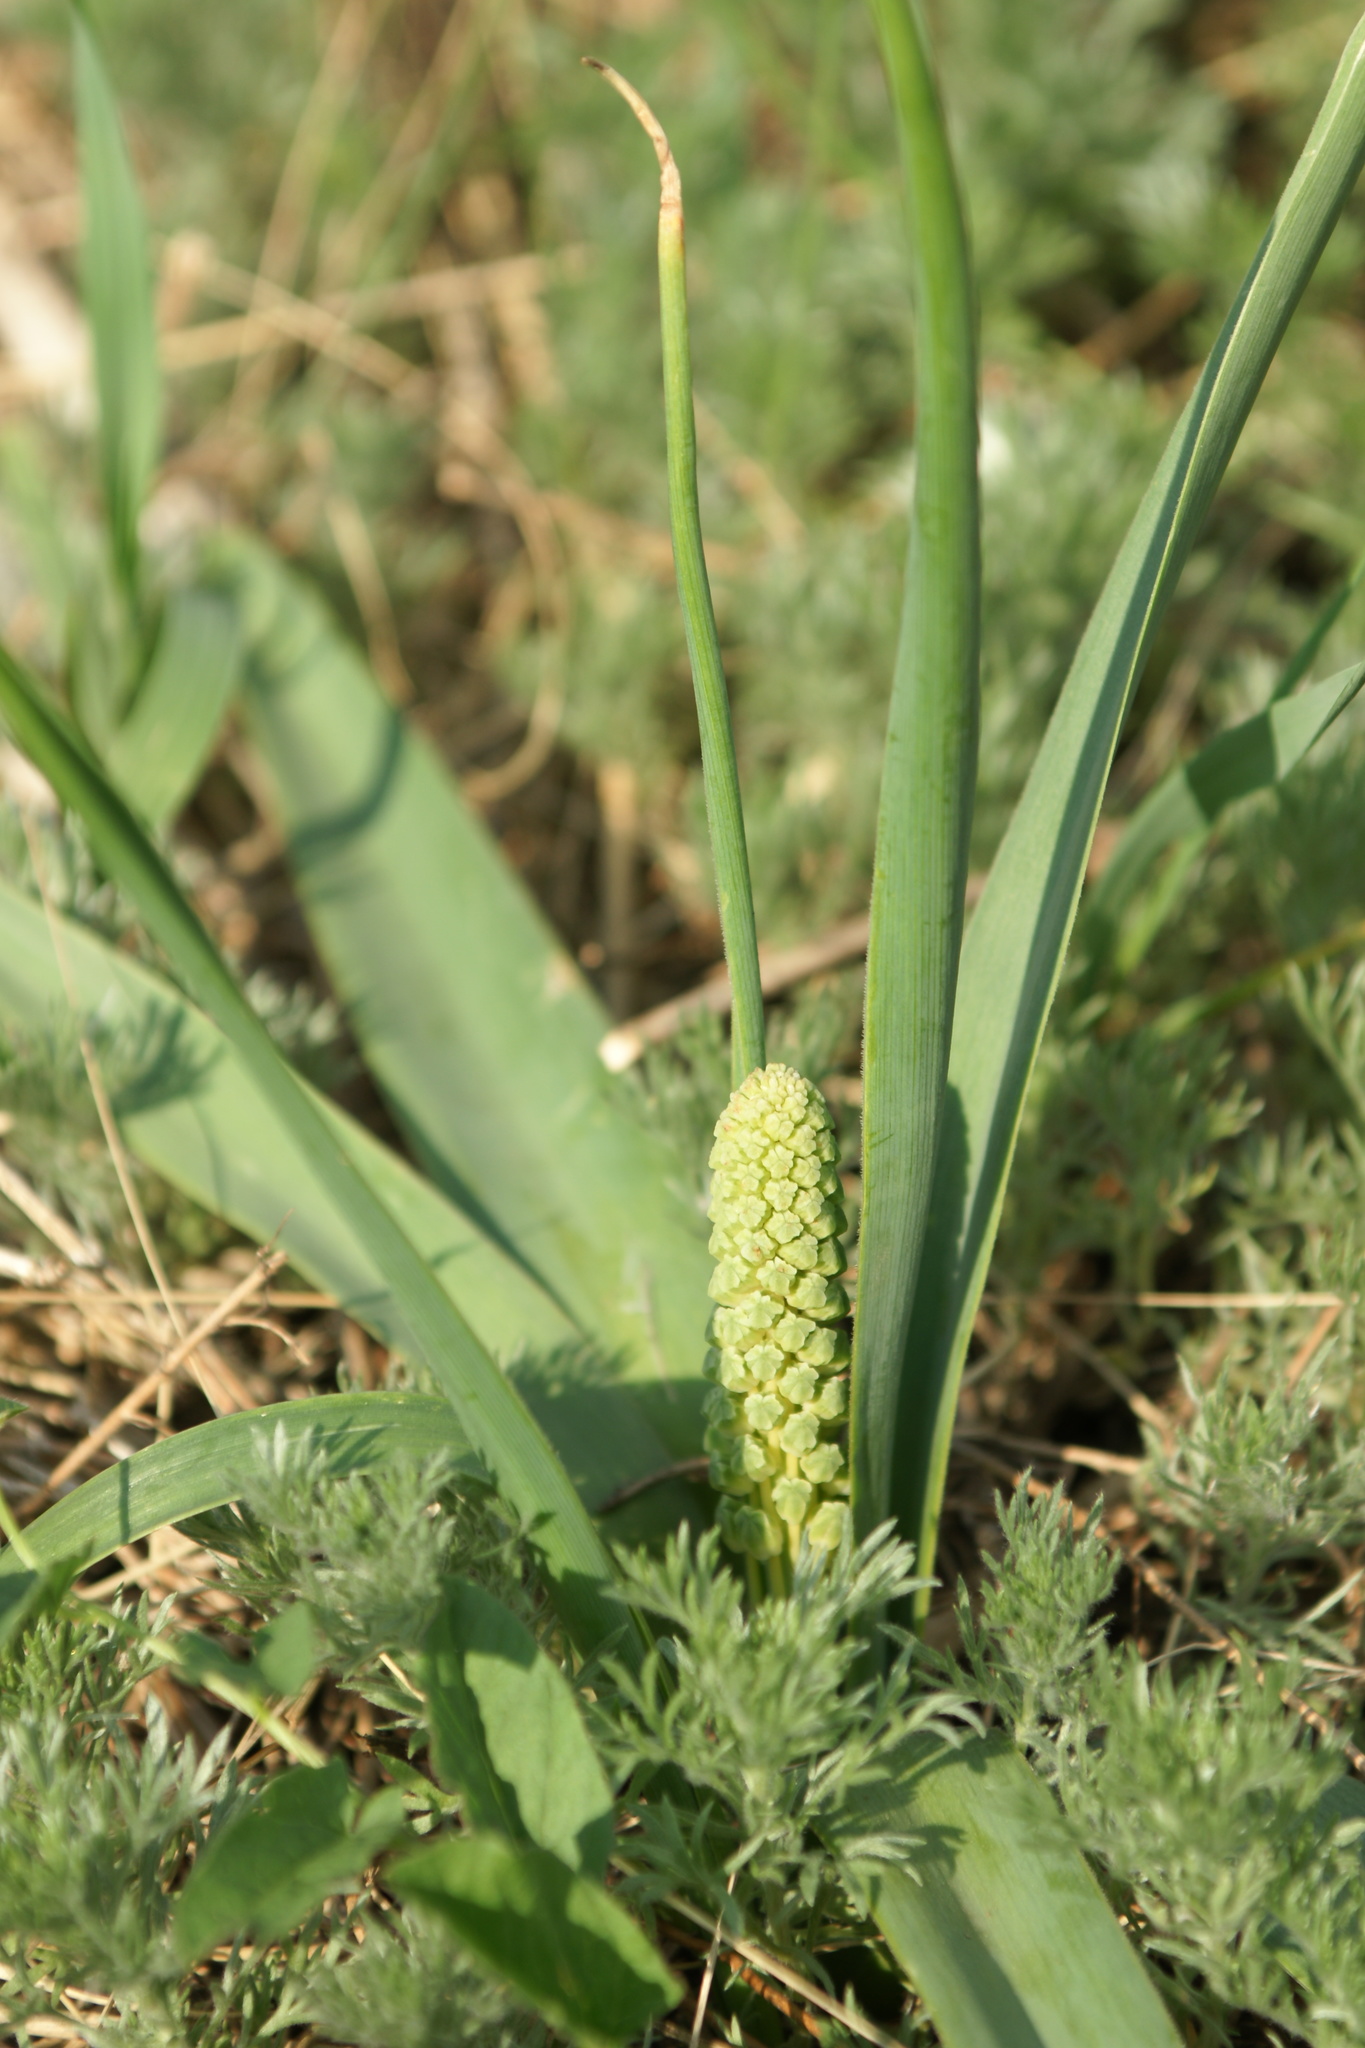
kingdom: Plantae
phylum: Tracheophyta
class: Liliopsida
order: Asparagales
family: Asparagaceae
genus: Bellevalia
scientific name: Bellevalia speciosa
